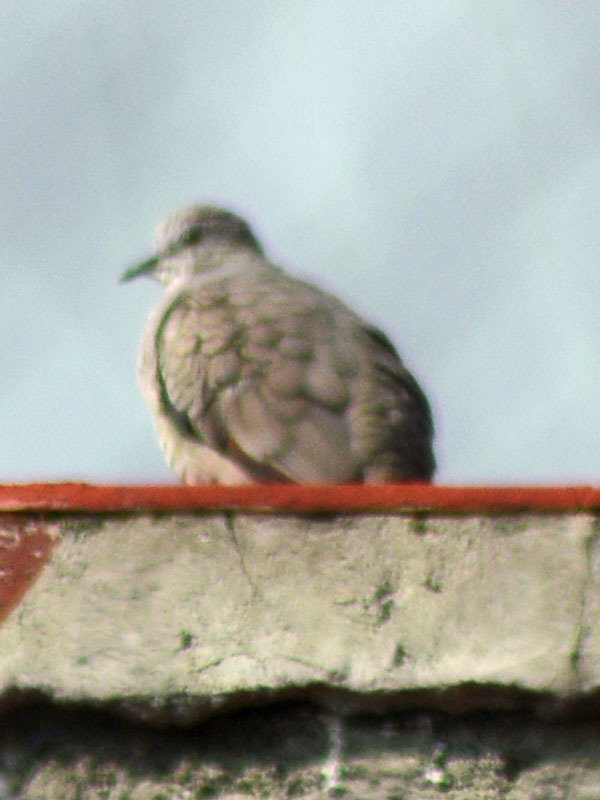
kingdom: Animalia
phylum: Chordata
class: Aves
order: Columbiformes
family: Columbidae
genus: Columbina
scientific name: Columbina inca
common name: Inca dove
